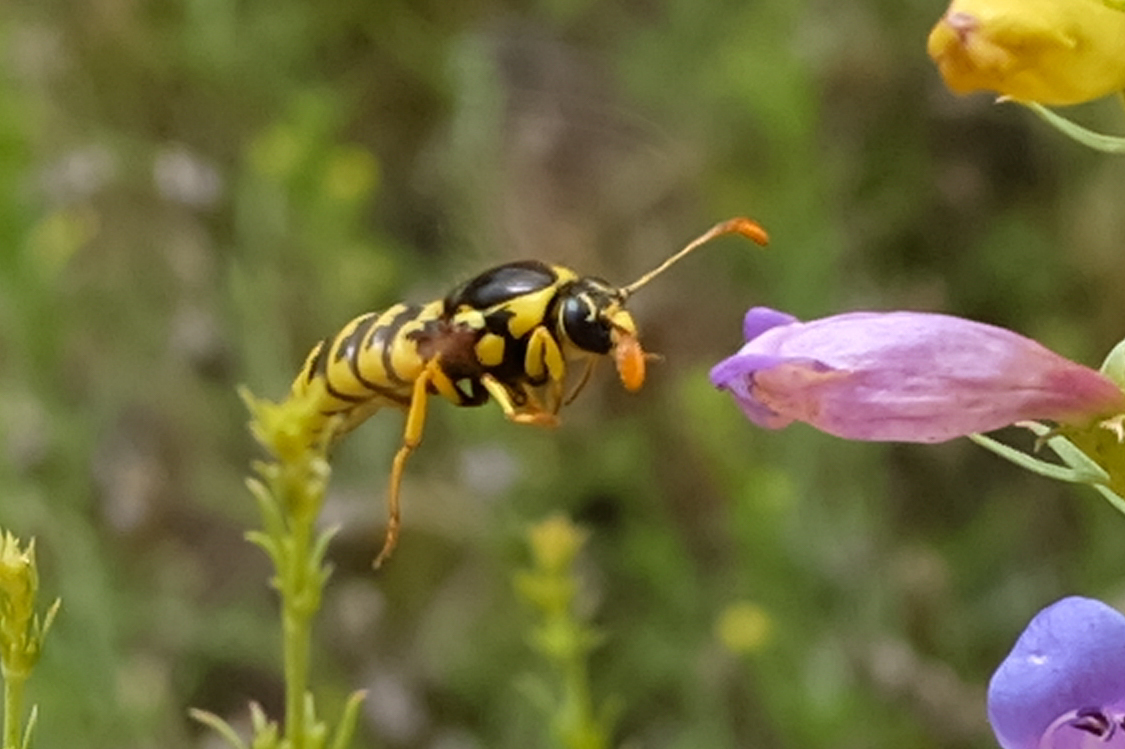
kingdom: Animalia
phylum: Arthropoda
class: Insecta
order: Hymenoptera
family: Masaridae
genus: Pseudomasaris
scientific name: Pseudomasaris vespoides
